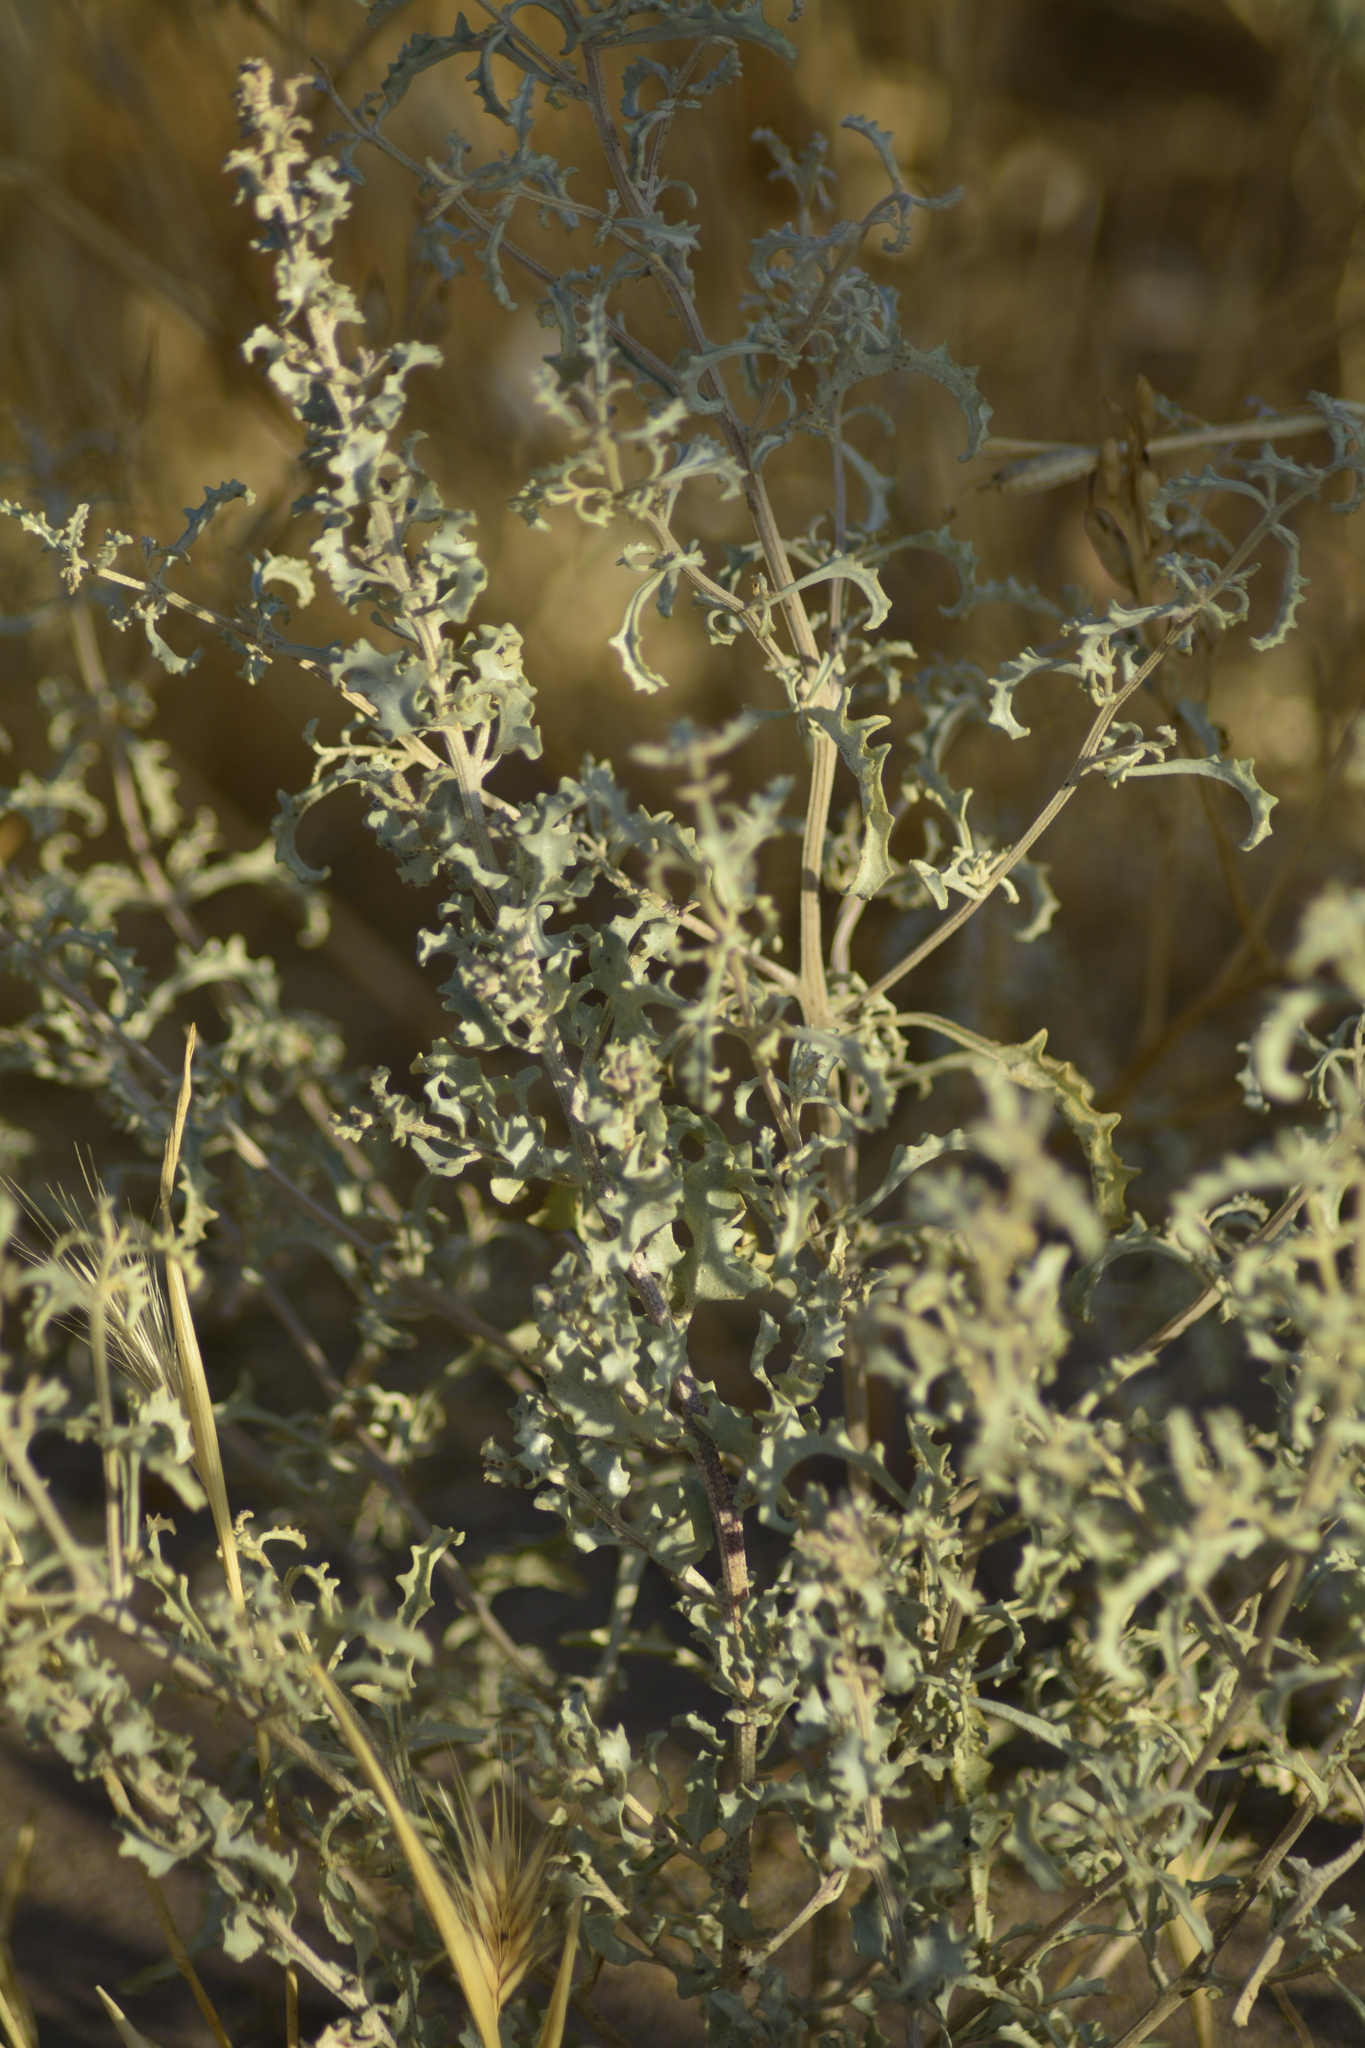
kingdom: Plantae
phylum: Tracheophyta
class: Magnoliopsida
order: Caryophyllales
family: Amaranthaceae
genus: Atriplex
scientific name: Atriplex lampa
